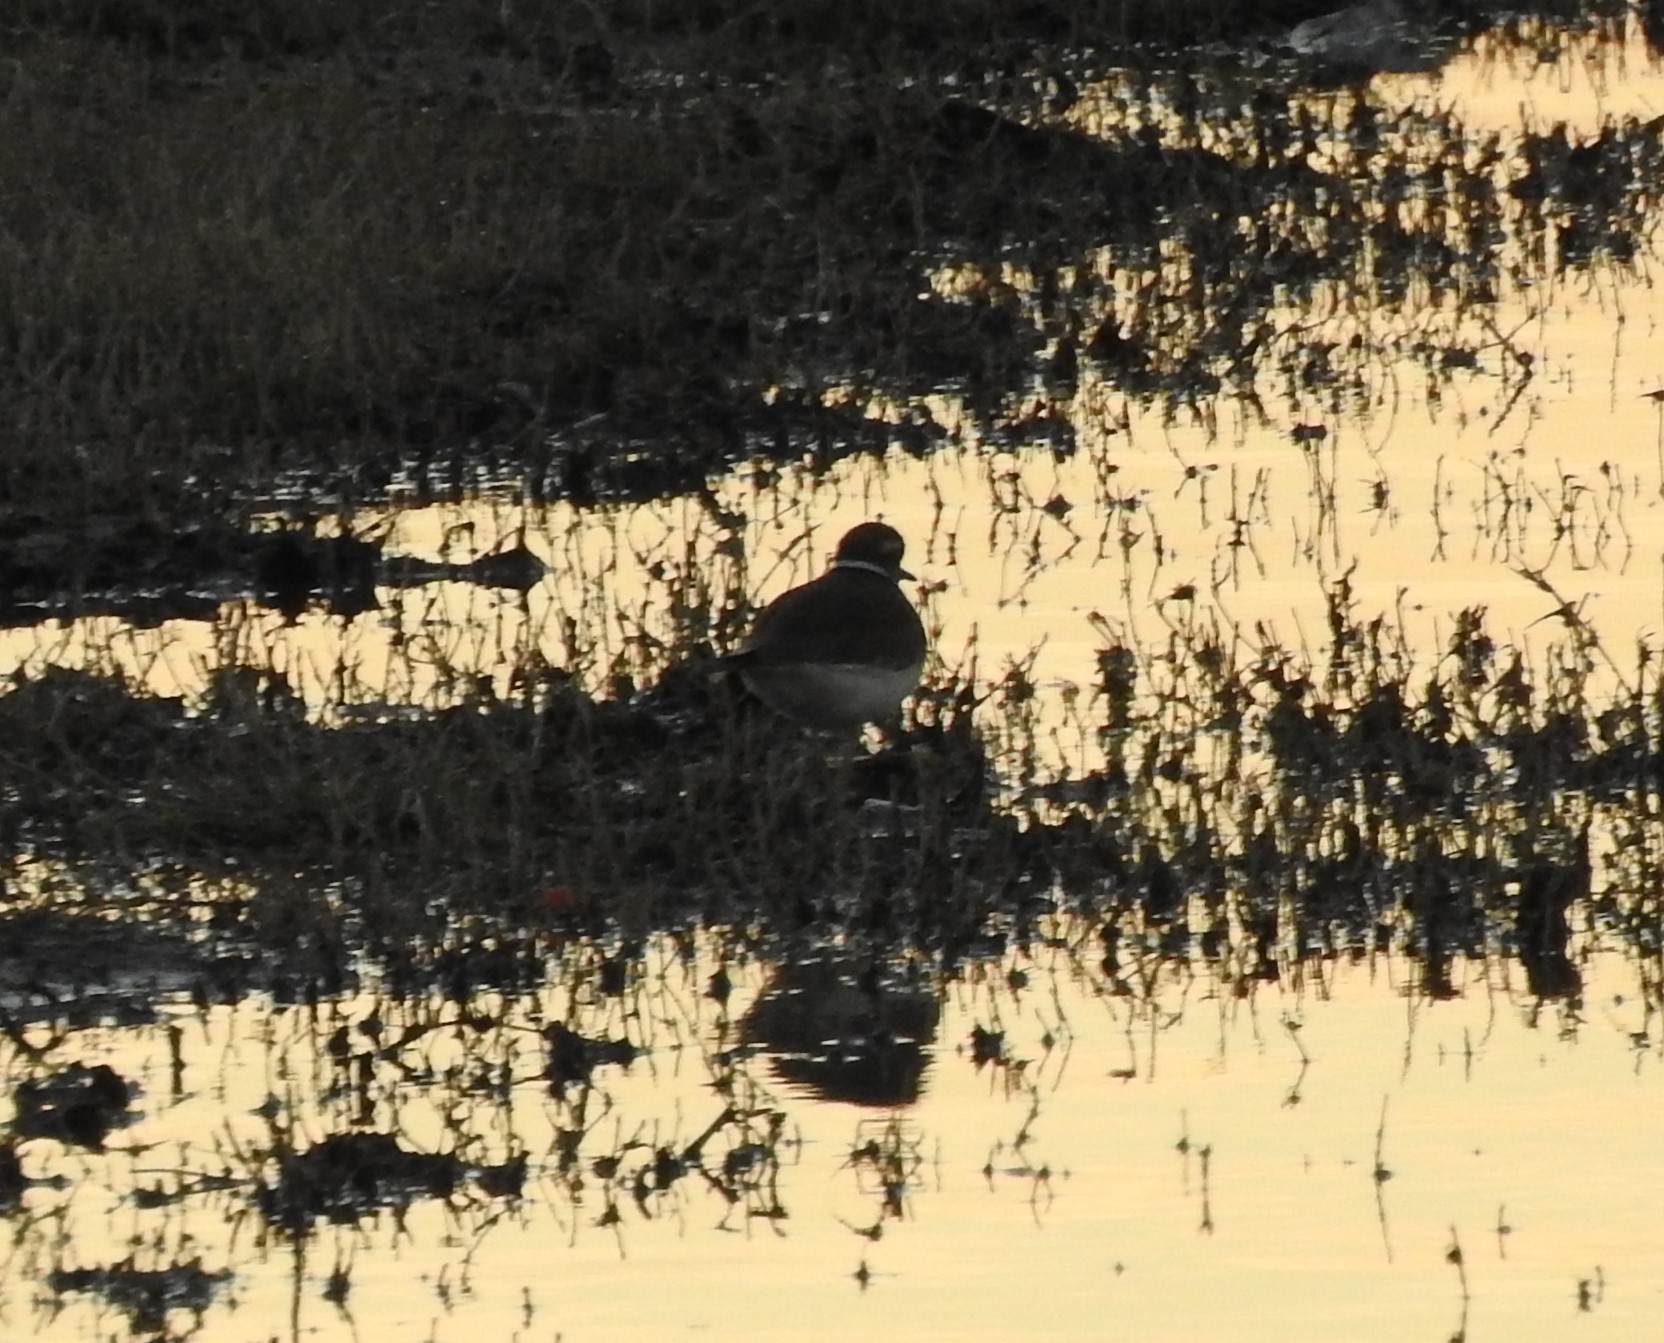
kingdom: Animalia
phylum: Chordata
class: Aves
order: Charadriiformes
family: Charadriidae
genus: Charadrius
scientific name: Charadrius vociferus
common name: Killdeer
